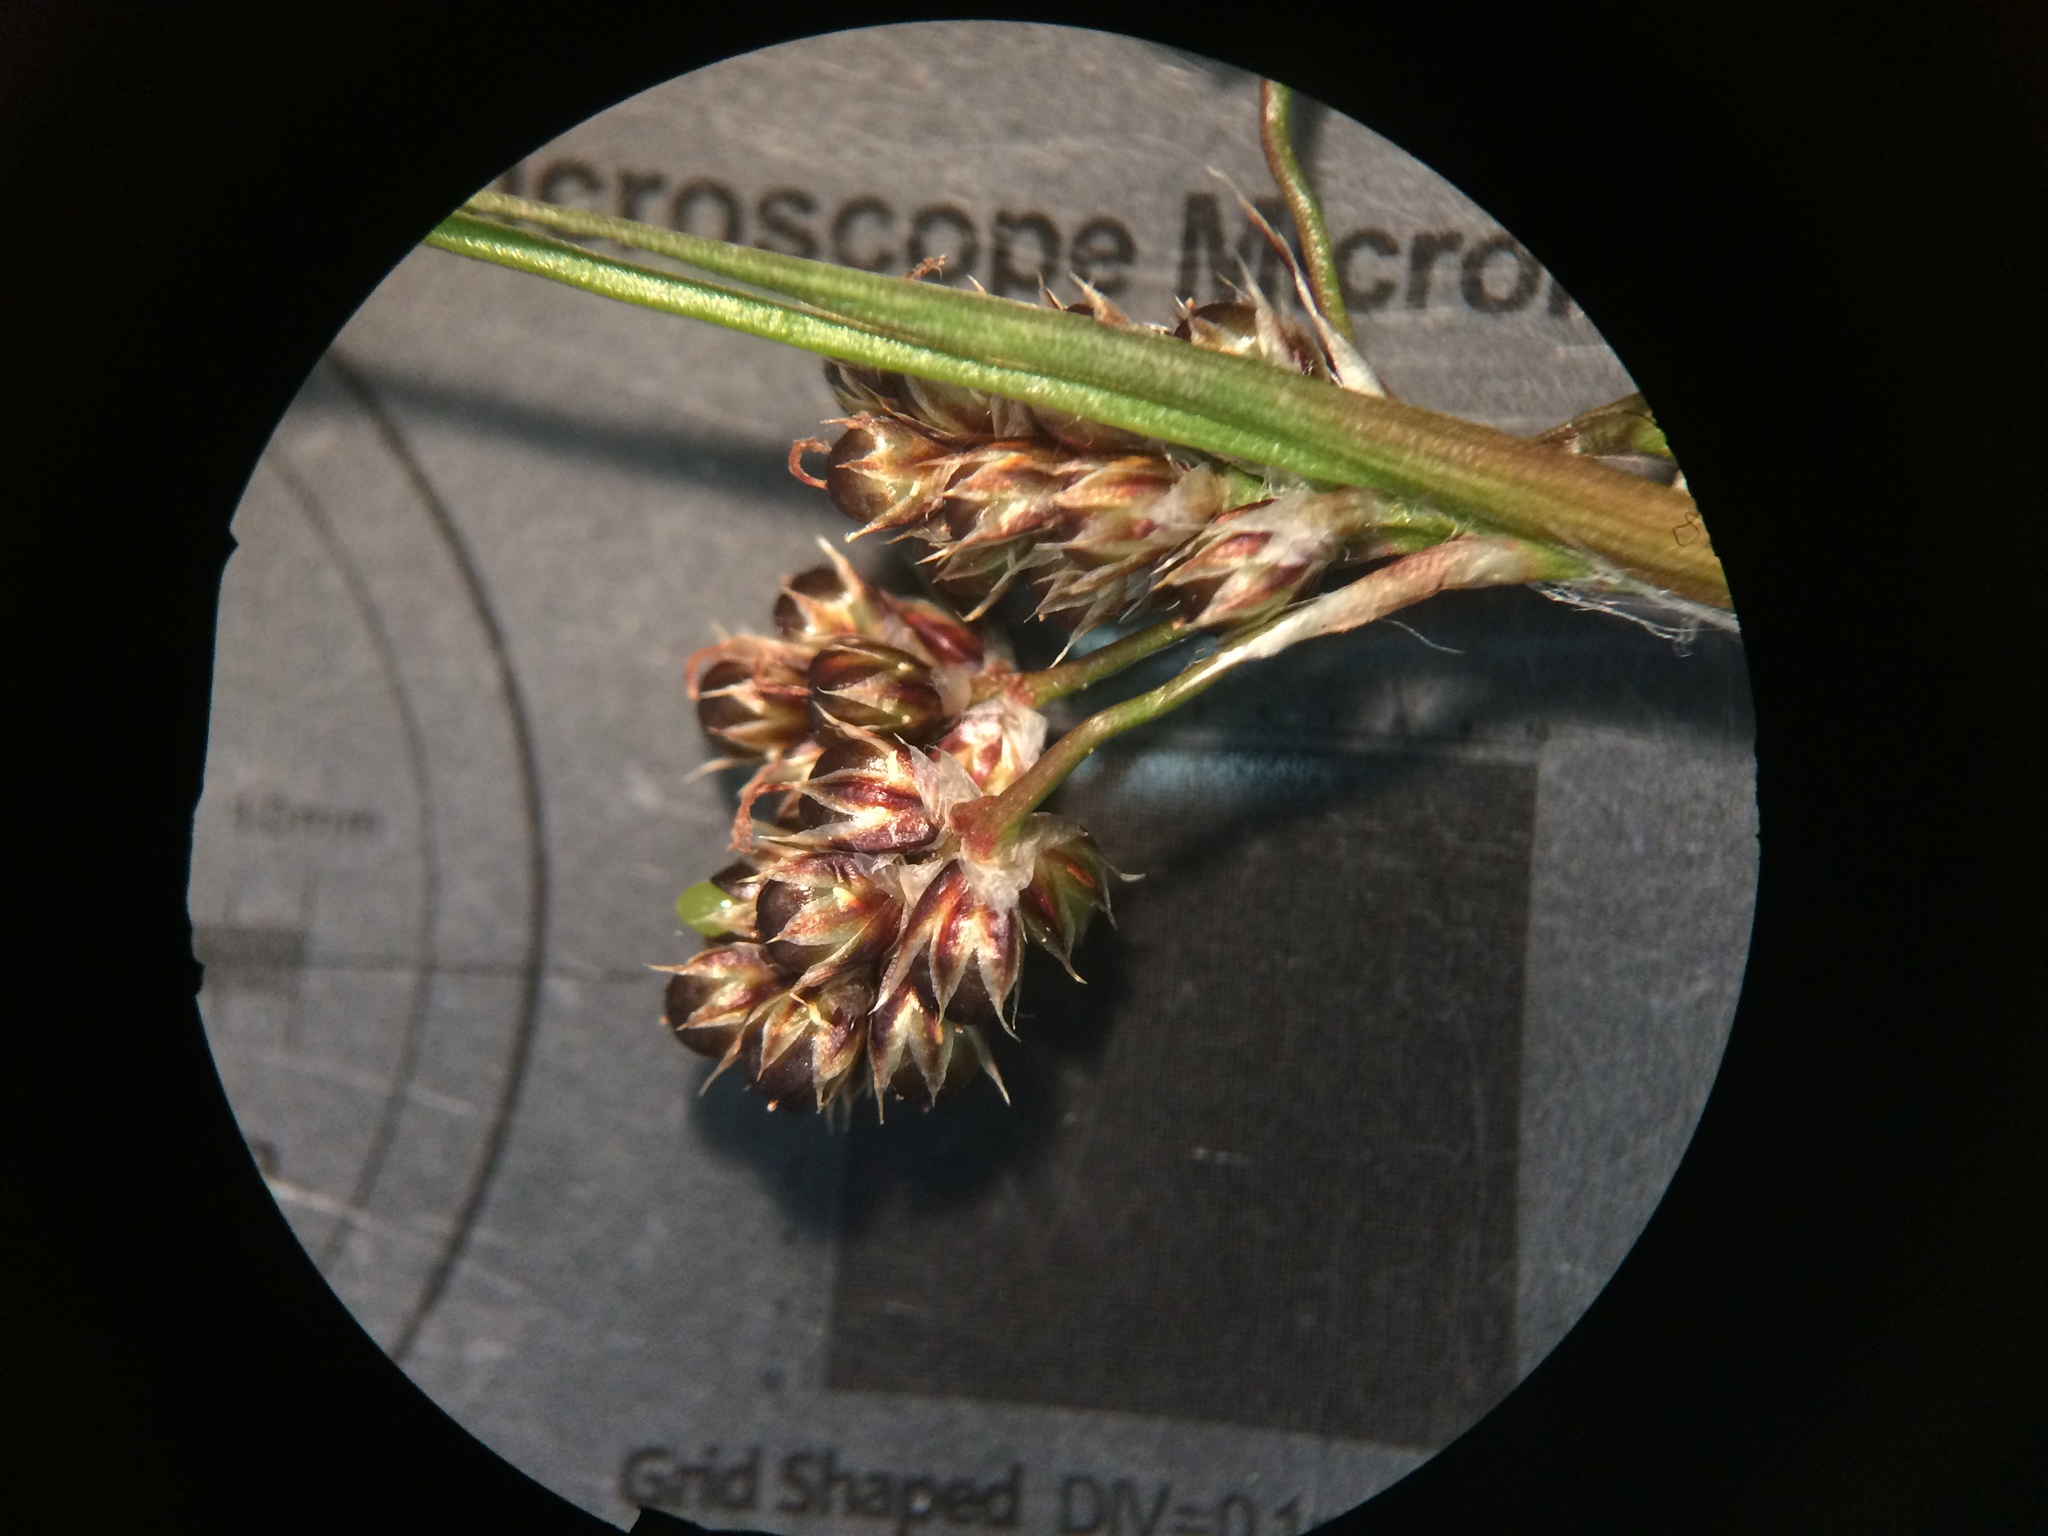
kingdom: Plantae
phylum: Tracheophyta
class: Liliopsida
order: Poales
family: Juncaceae
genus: Luzula
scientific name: Luzula multiflora
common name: Heath wood-rush
